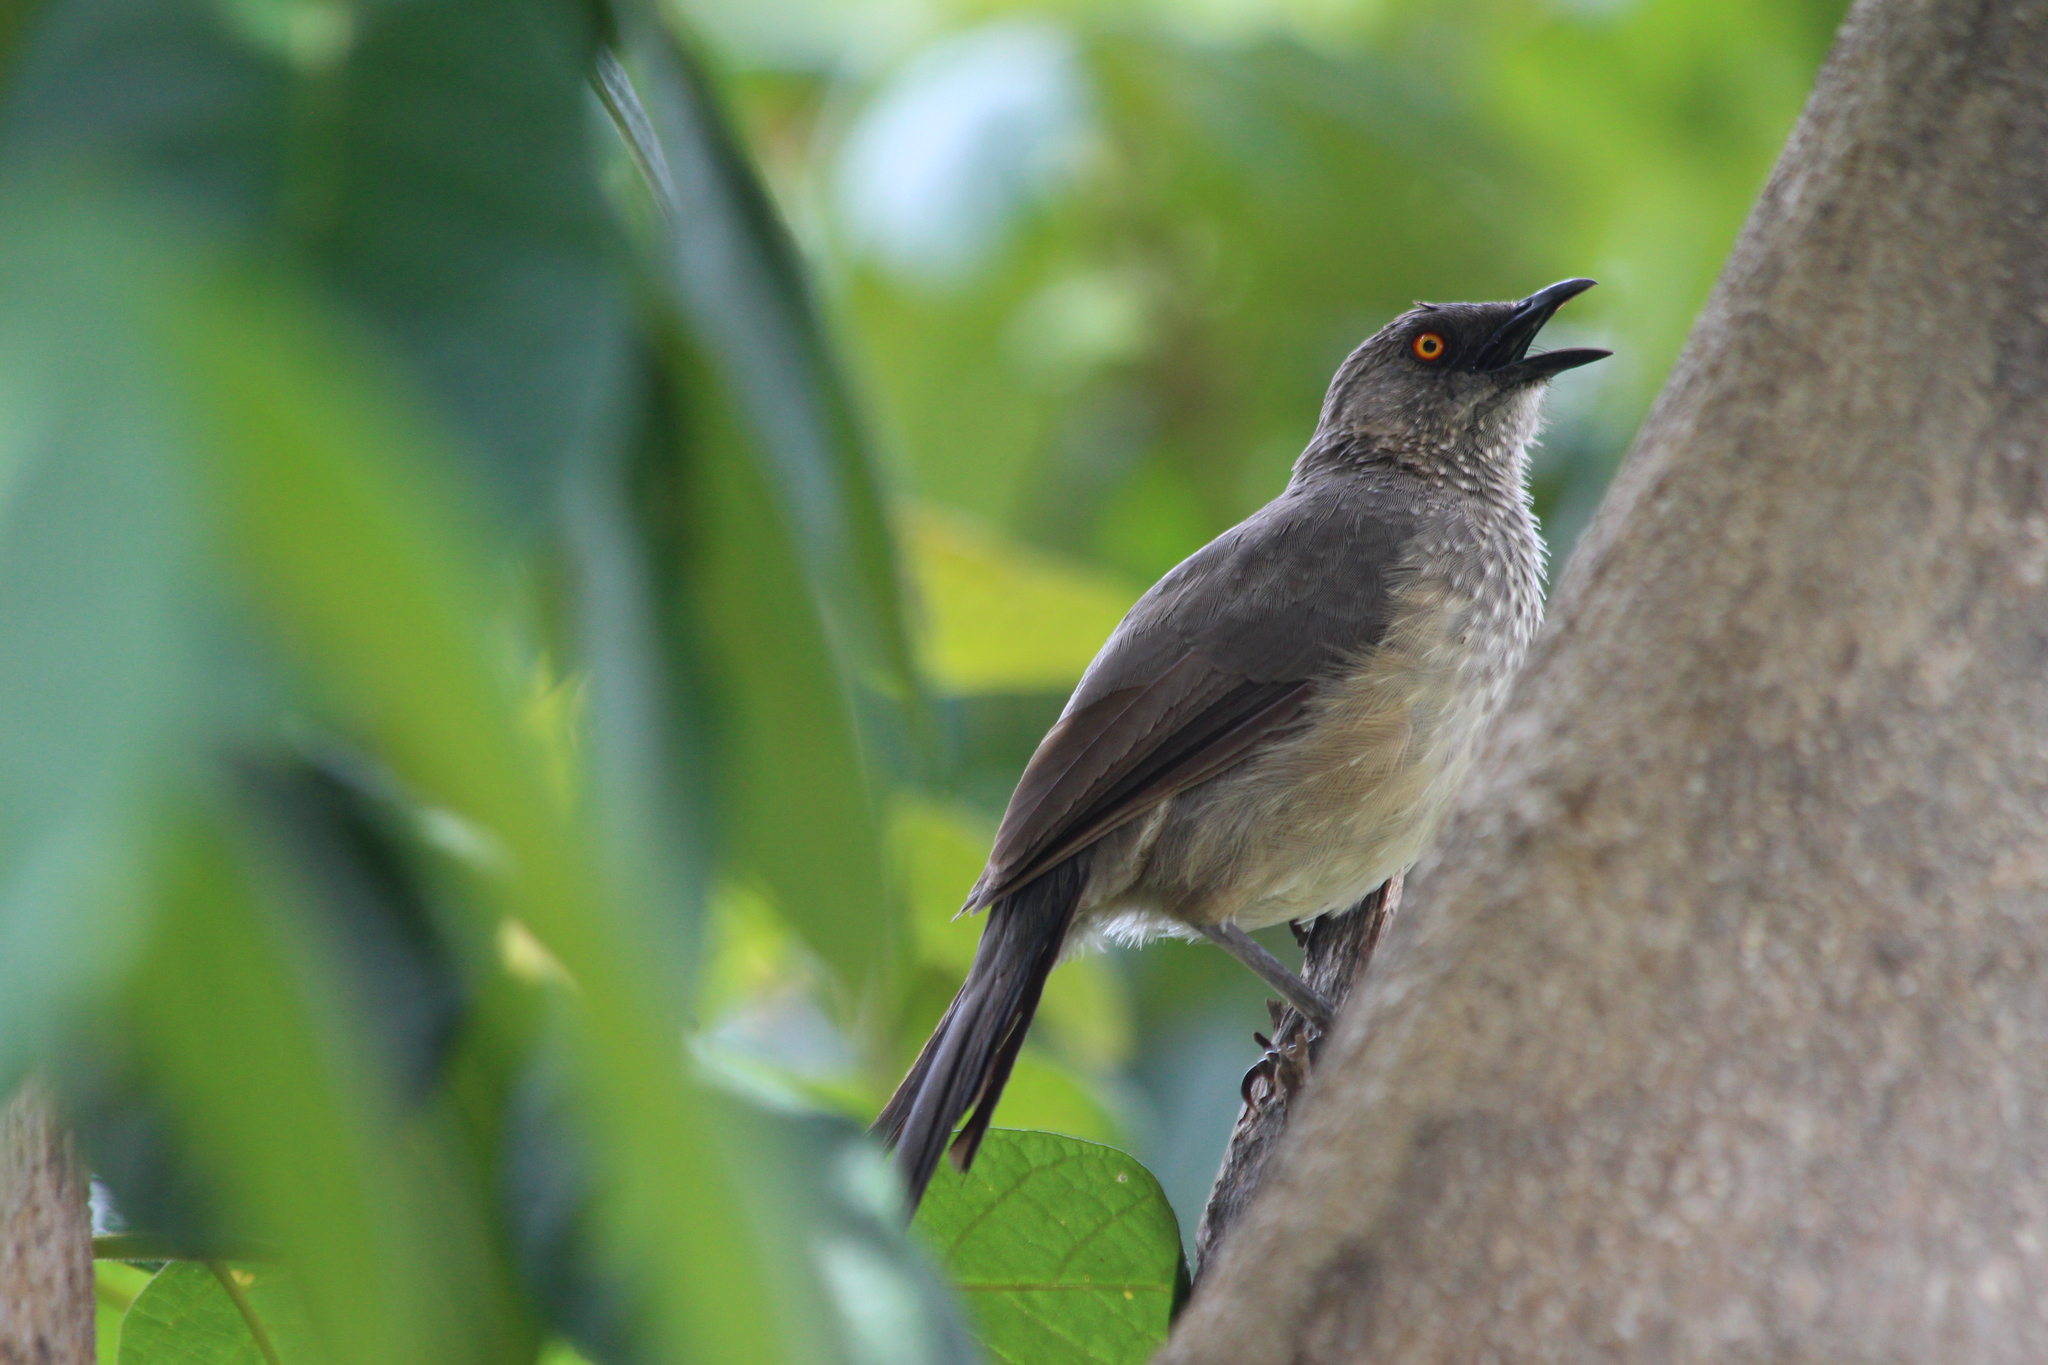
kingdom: Animalia
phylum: Chordata
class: Aves
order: Passeriformes
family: Leiothrichidae
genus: Turdoides
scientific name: Turdoides jardineii
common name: Arrow-marked babbler
